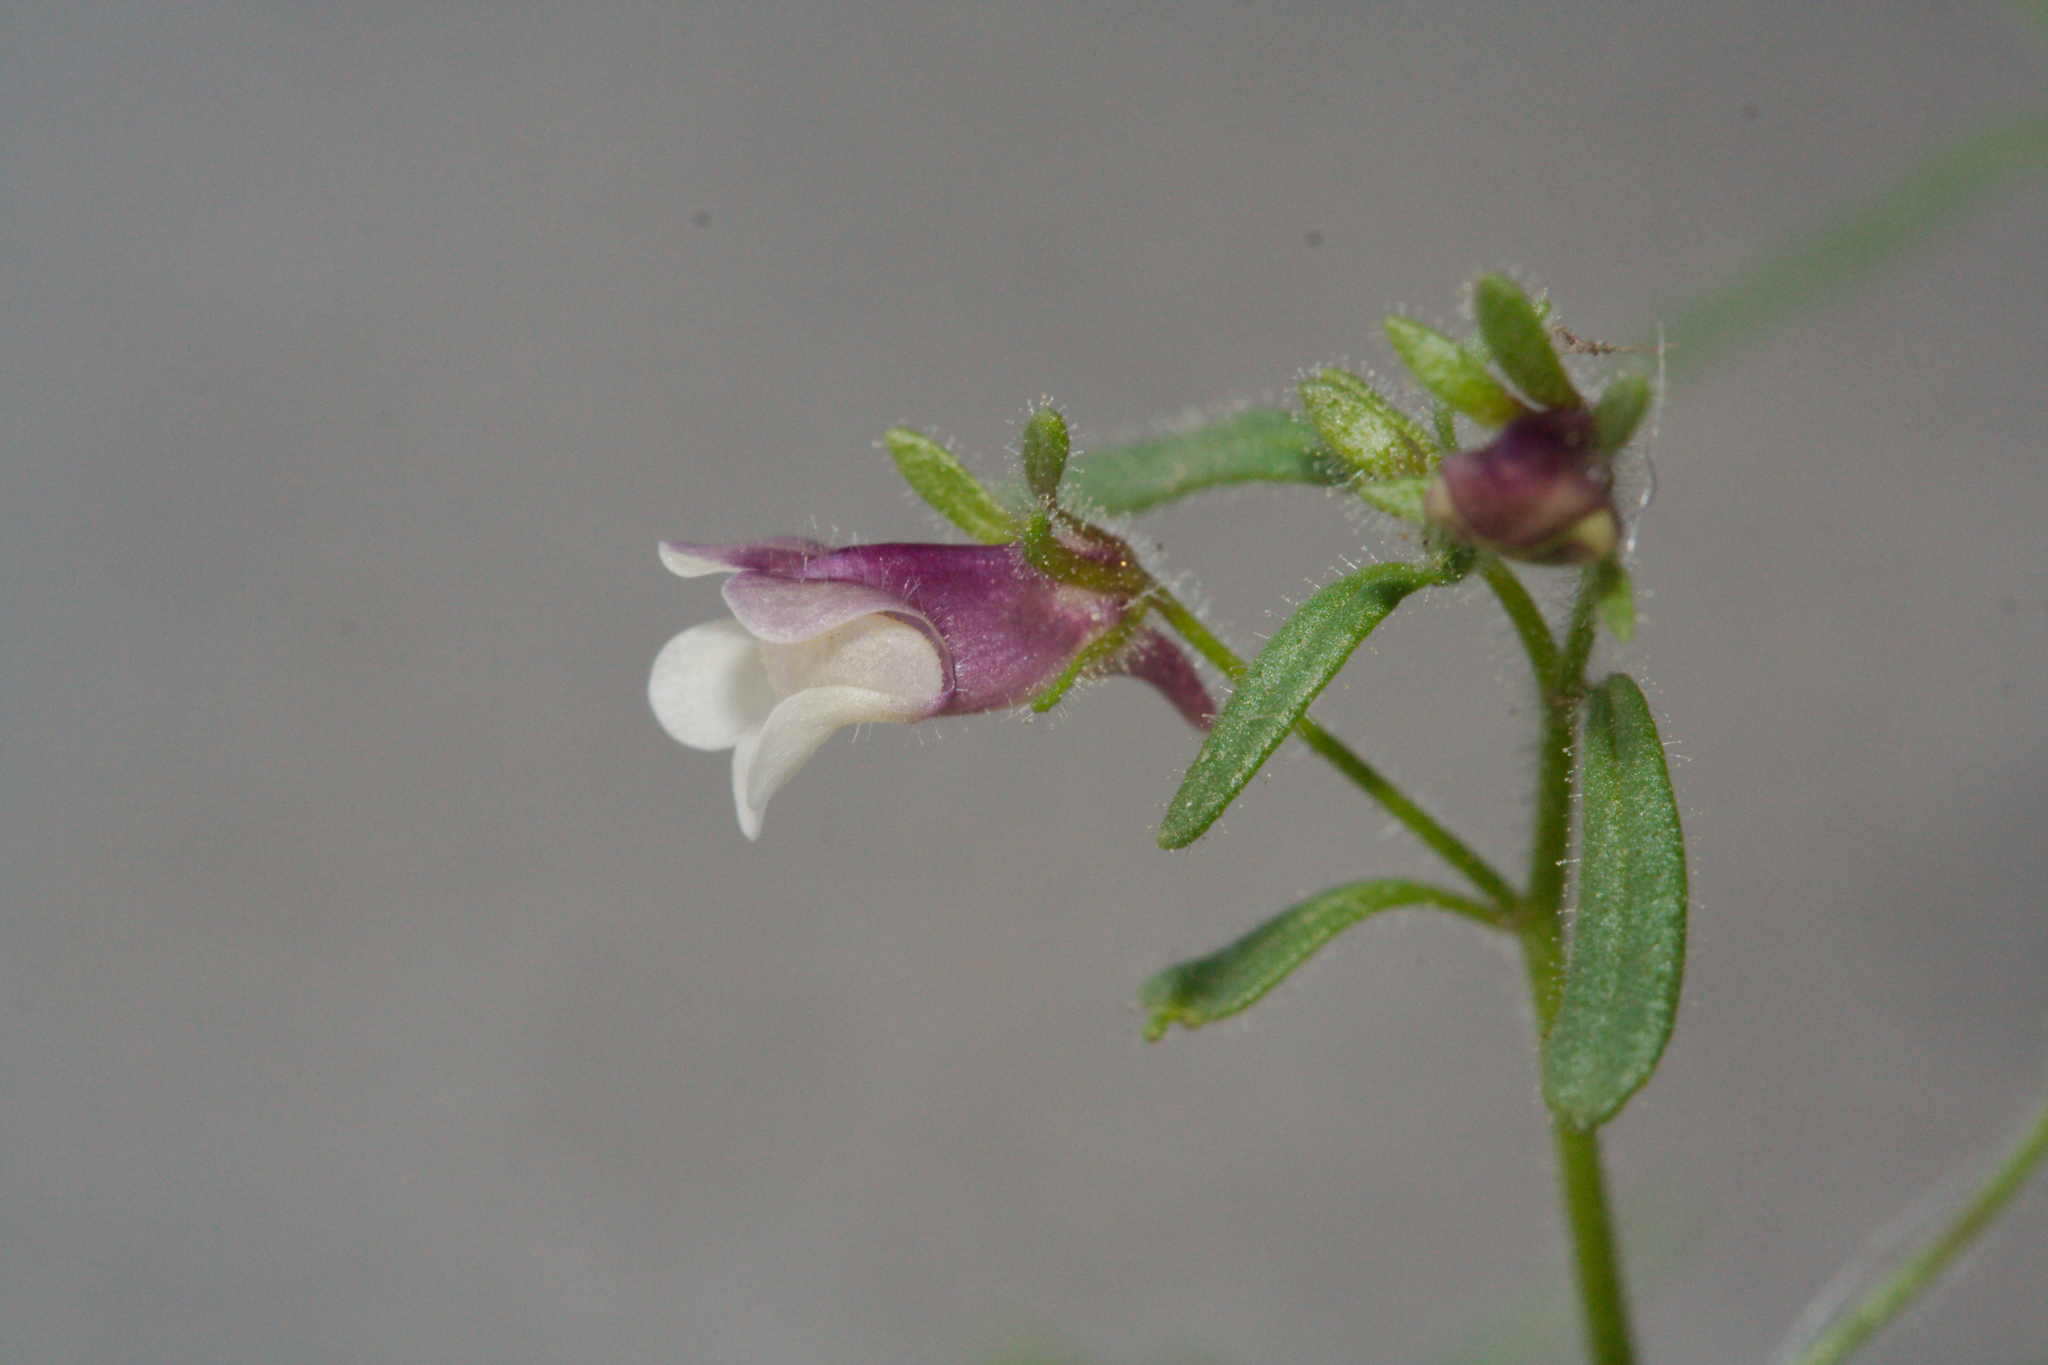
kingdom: Plantae
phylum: Tracheophyta
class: Magnoliopsida
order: Lamiales
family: Plantaginaceae
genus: Chaenorhinum
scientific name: Chaenorhinum minus
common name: Dwarf snapdragon
